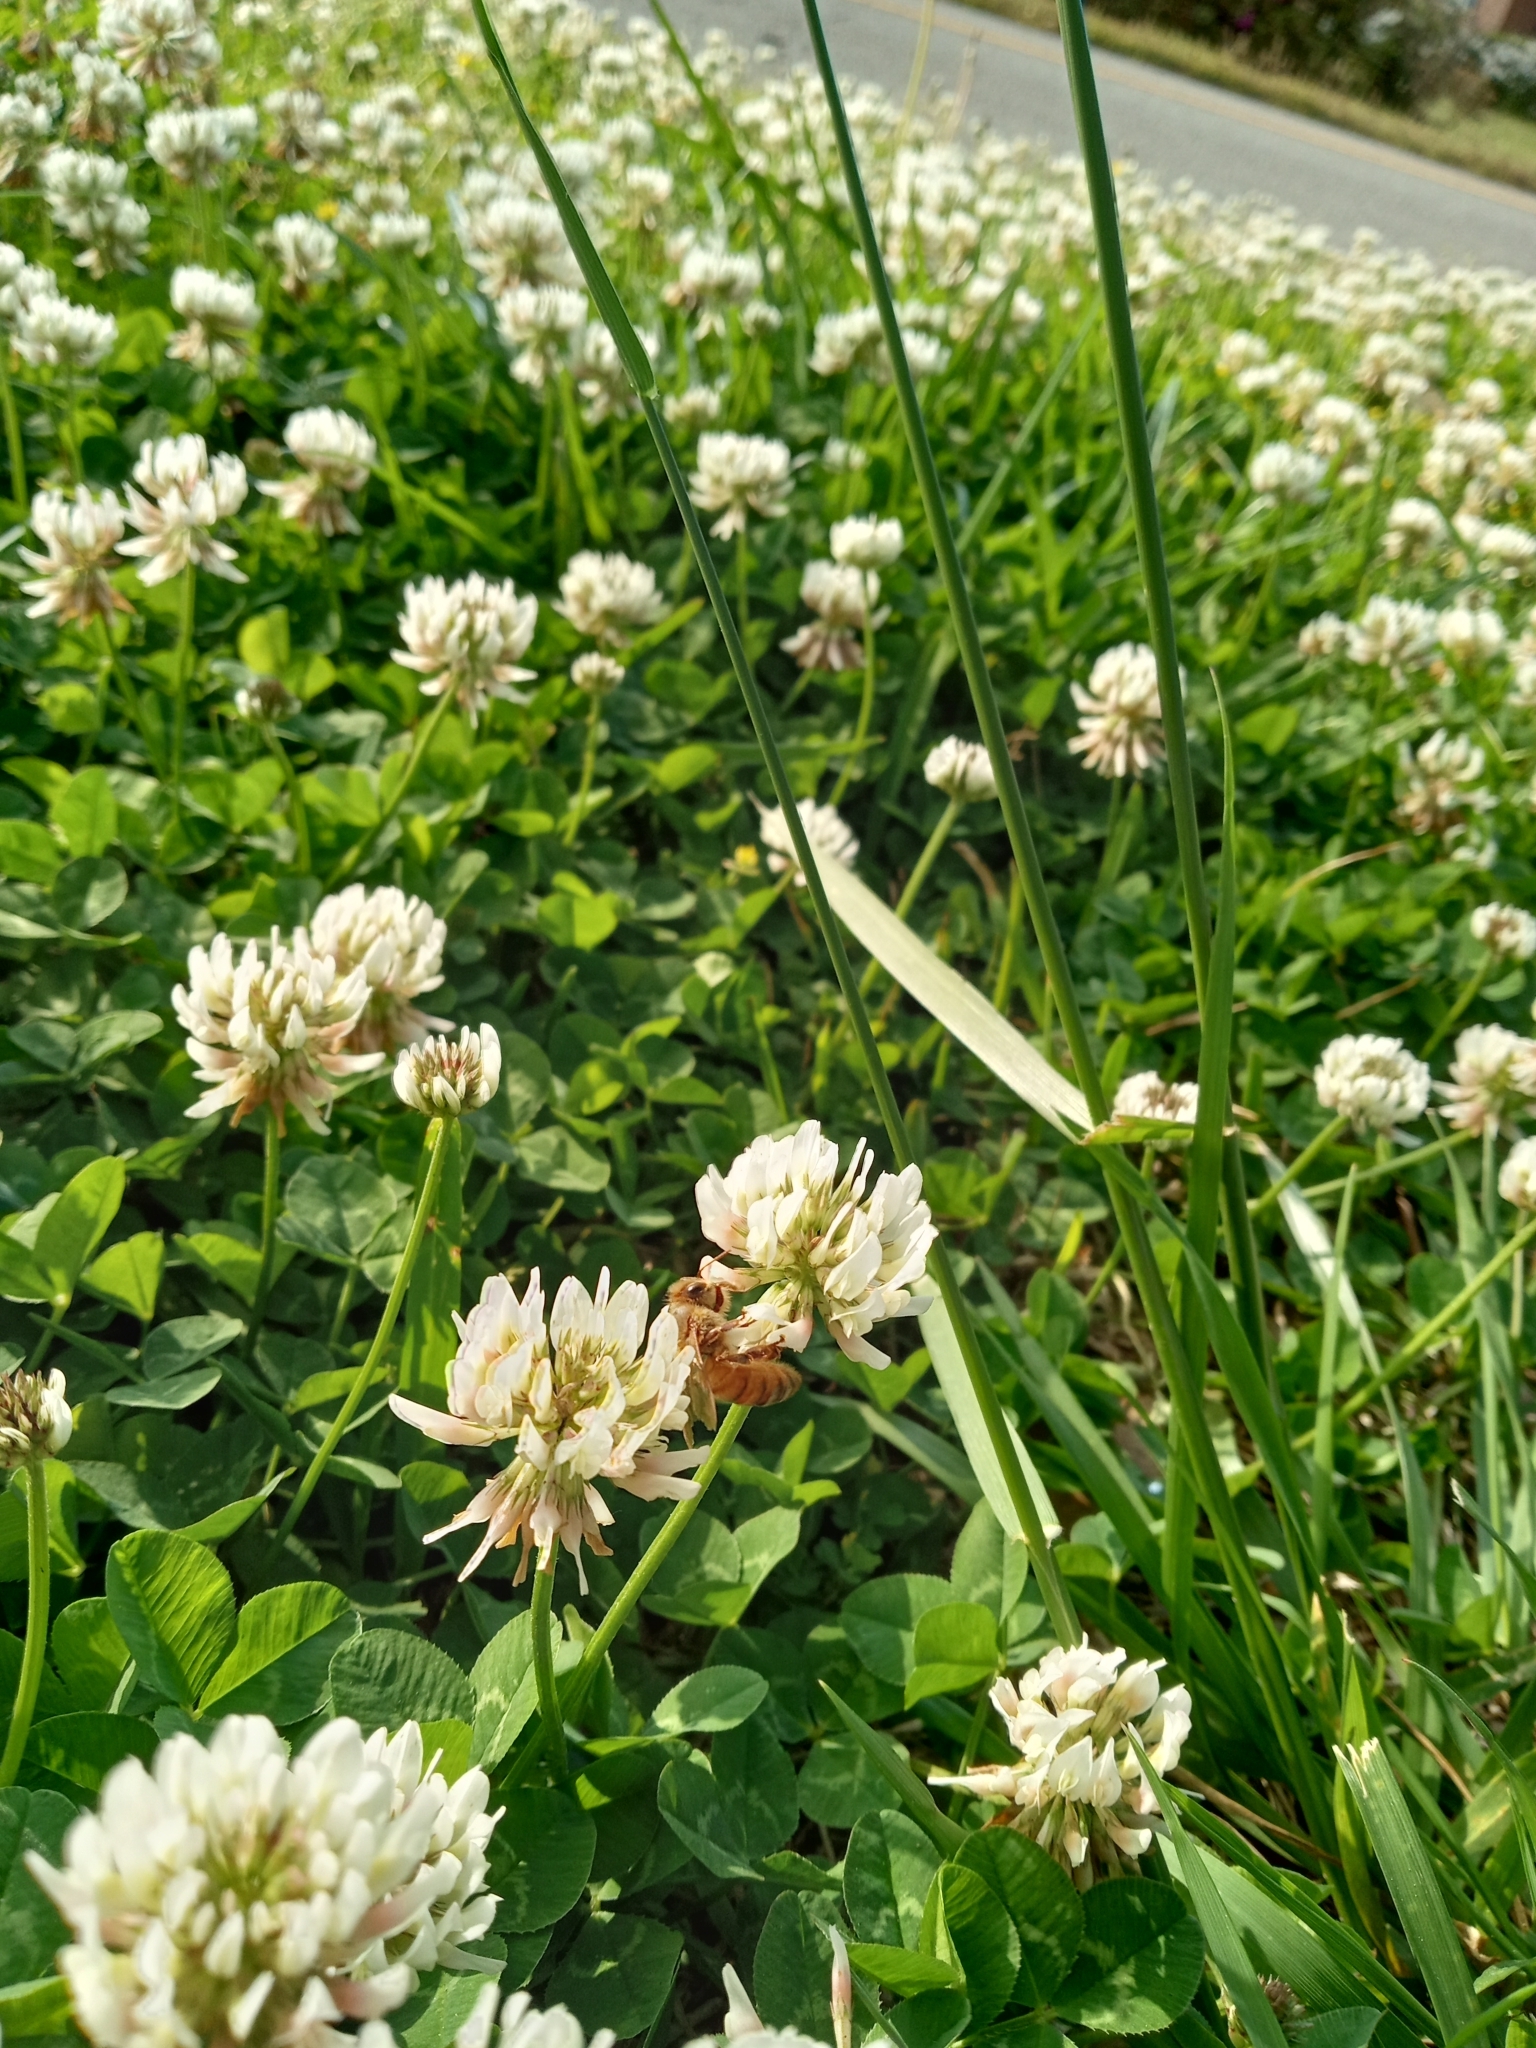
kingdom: Plantae
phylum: Tracheophyta
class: Magnoliopsida
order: Fabales
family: Fabaceae
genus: Trifolium
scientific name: Trifolium repens
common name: White clover
